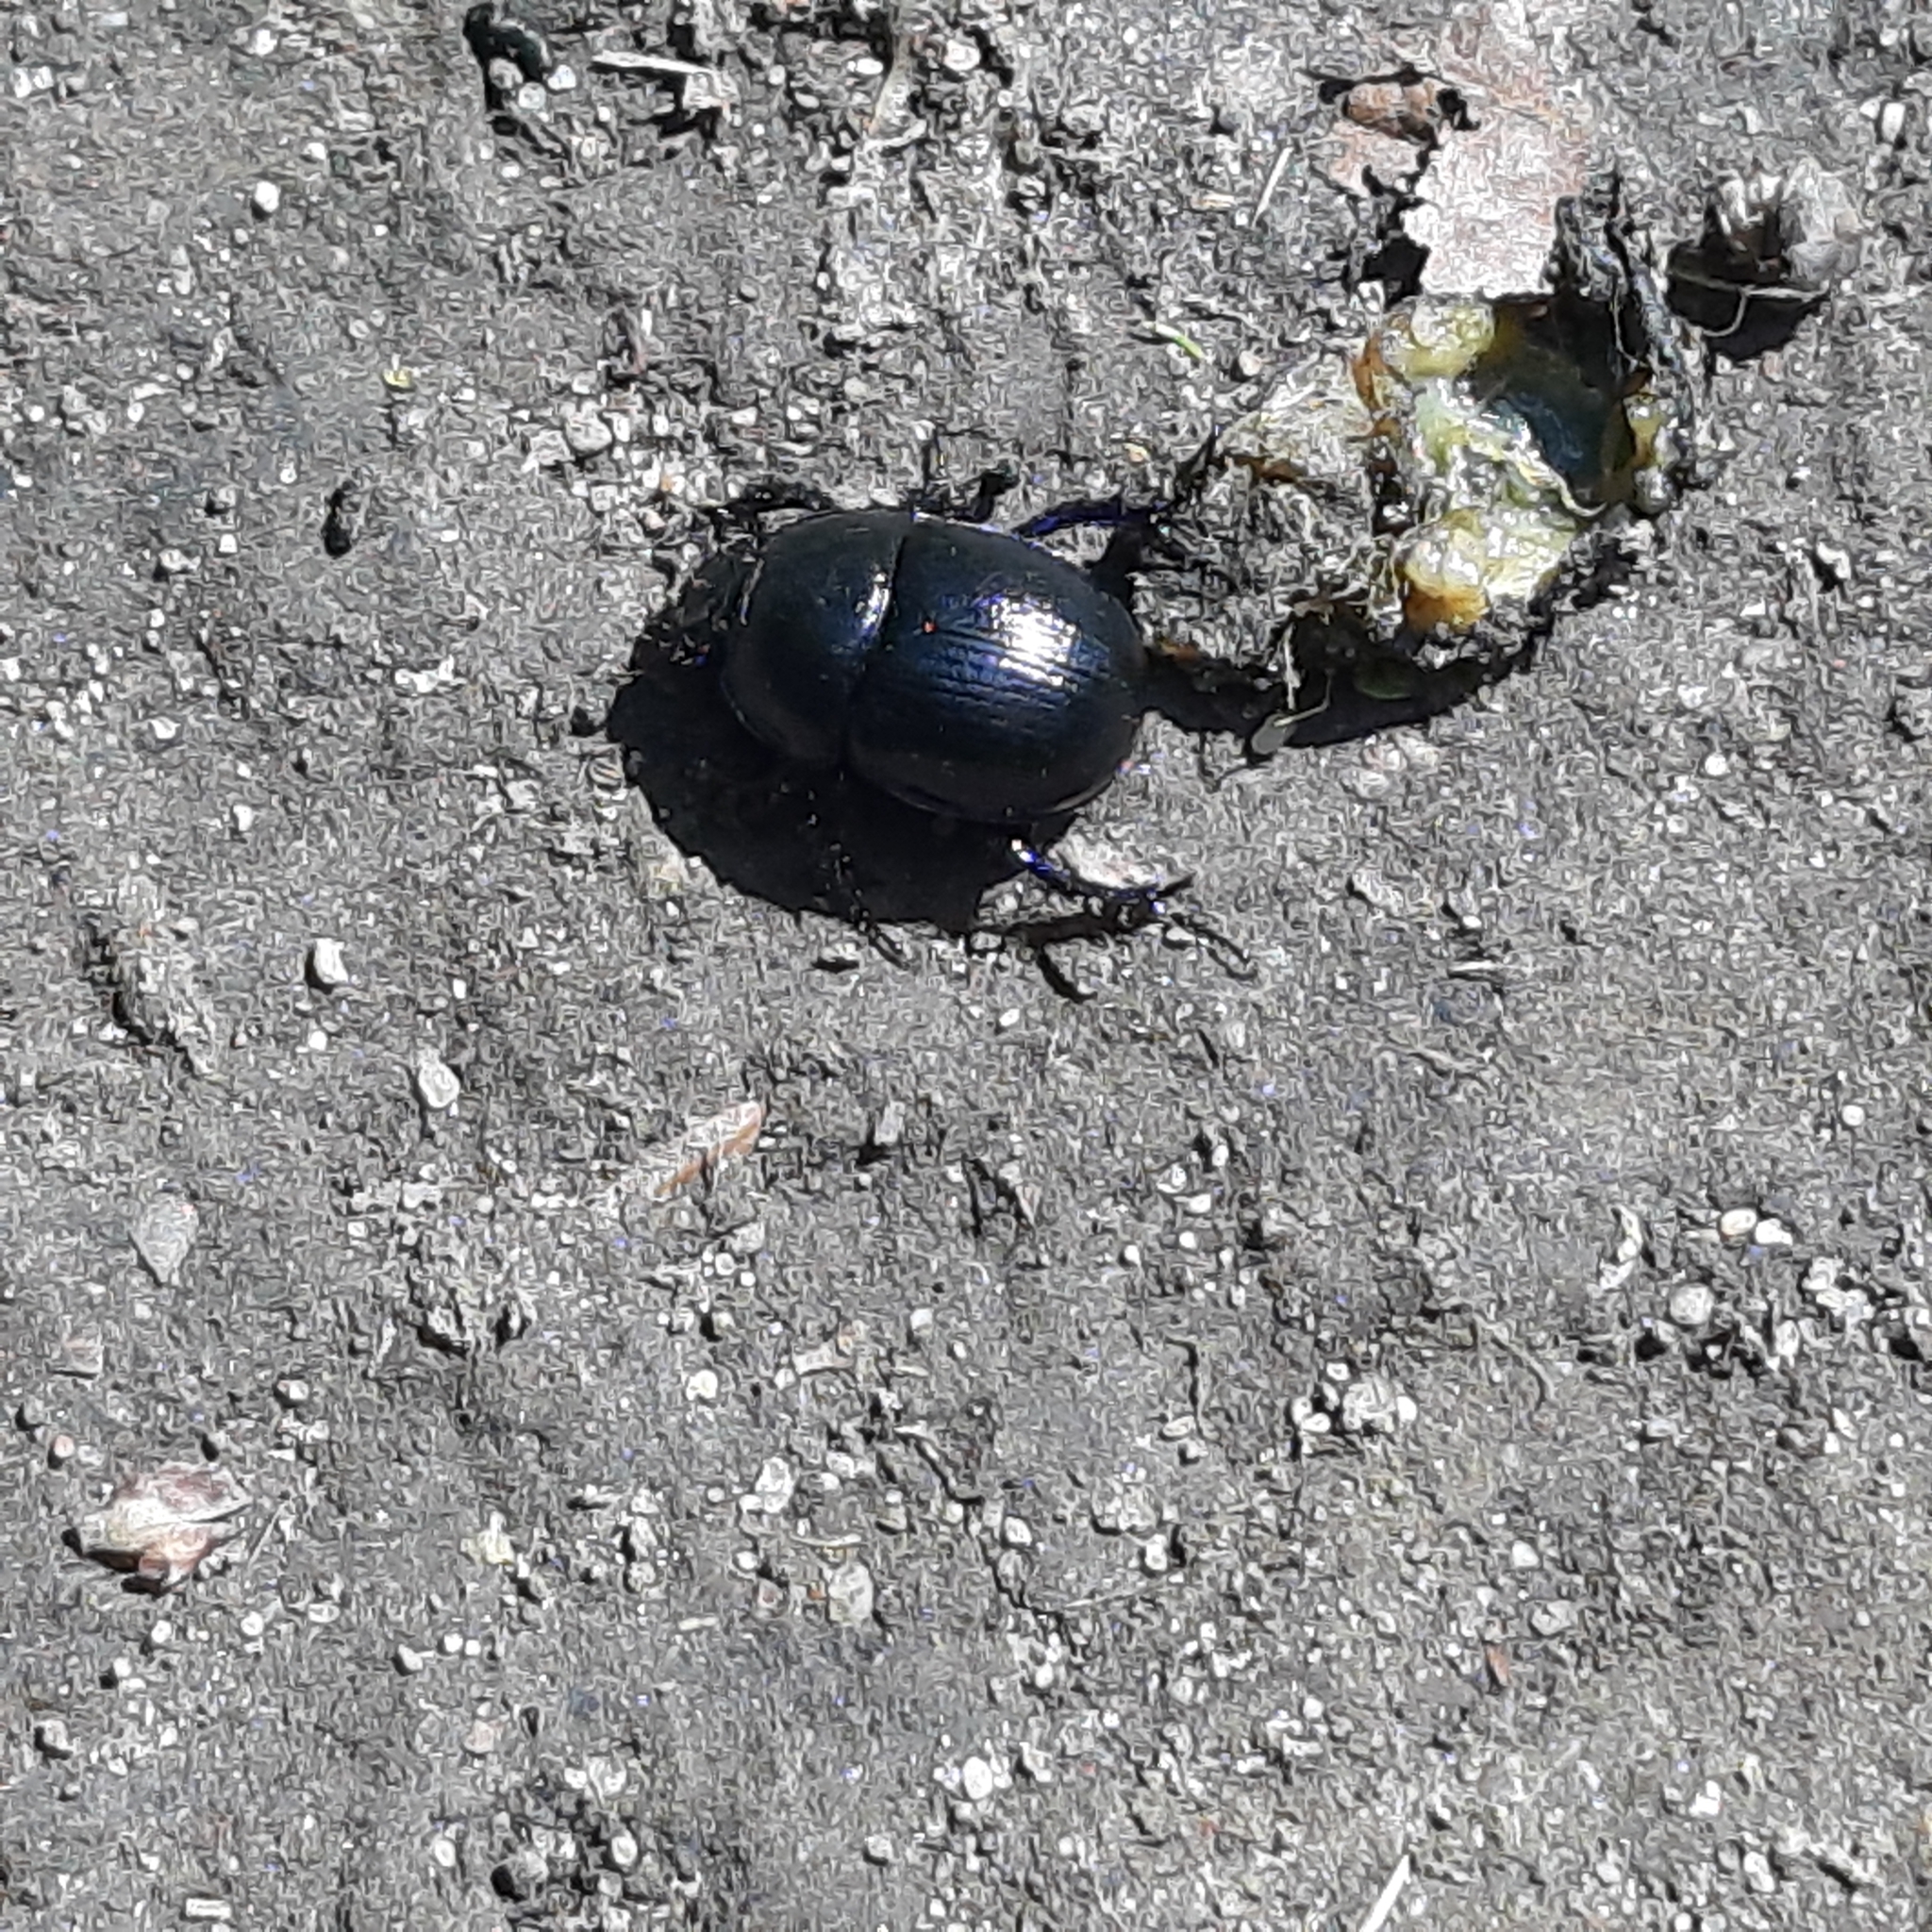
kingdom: Animalia
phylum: Arthropoda
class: Insecta
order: Coleoptera
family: Geotrupidae
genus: Anoplotrupes
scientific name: Anoplotrupes stercorosus
